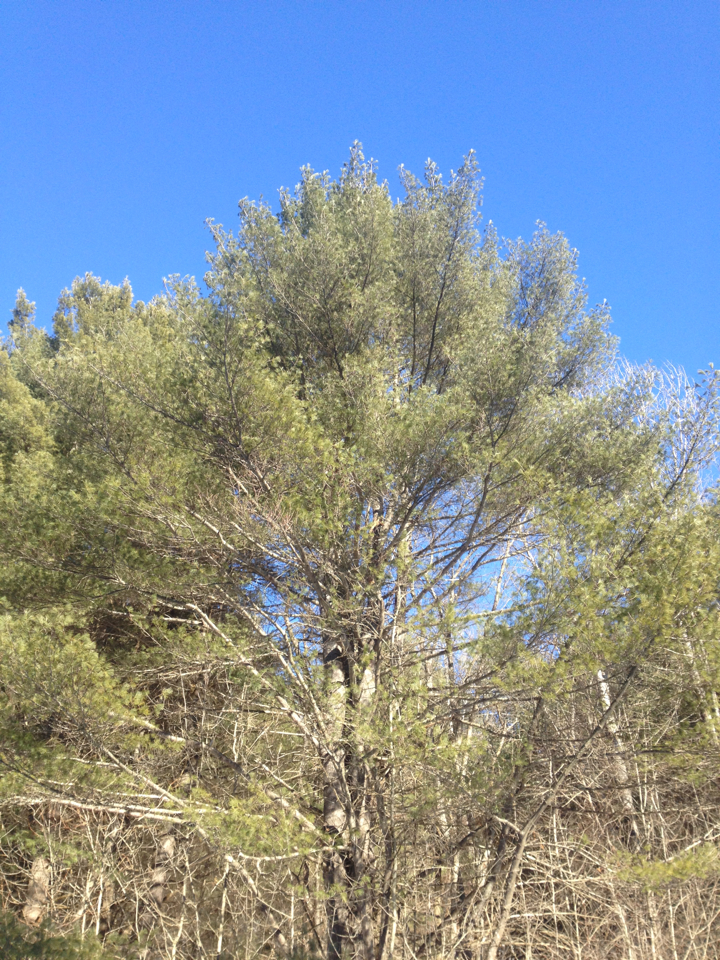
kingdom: Plantae
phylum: Tracheophyta
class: Pinopsida
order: Pinales
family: Pinaceae
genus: Pinus
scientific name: Pinus strobus
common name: Weymouth pine
